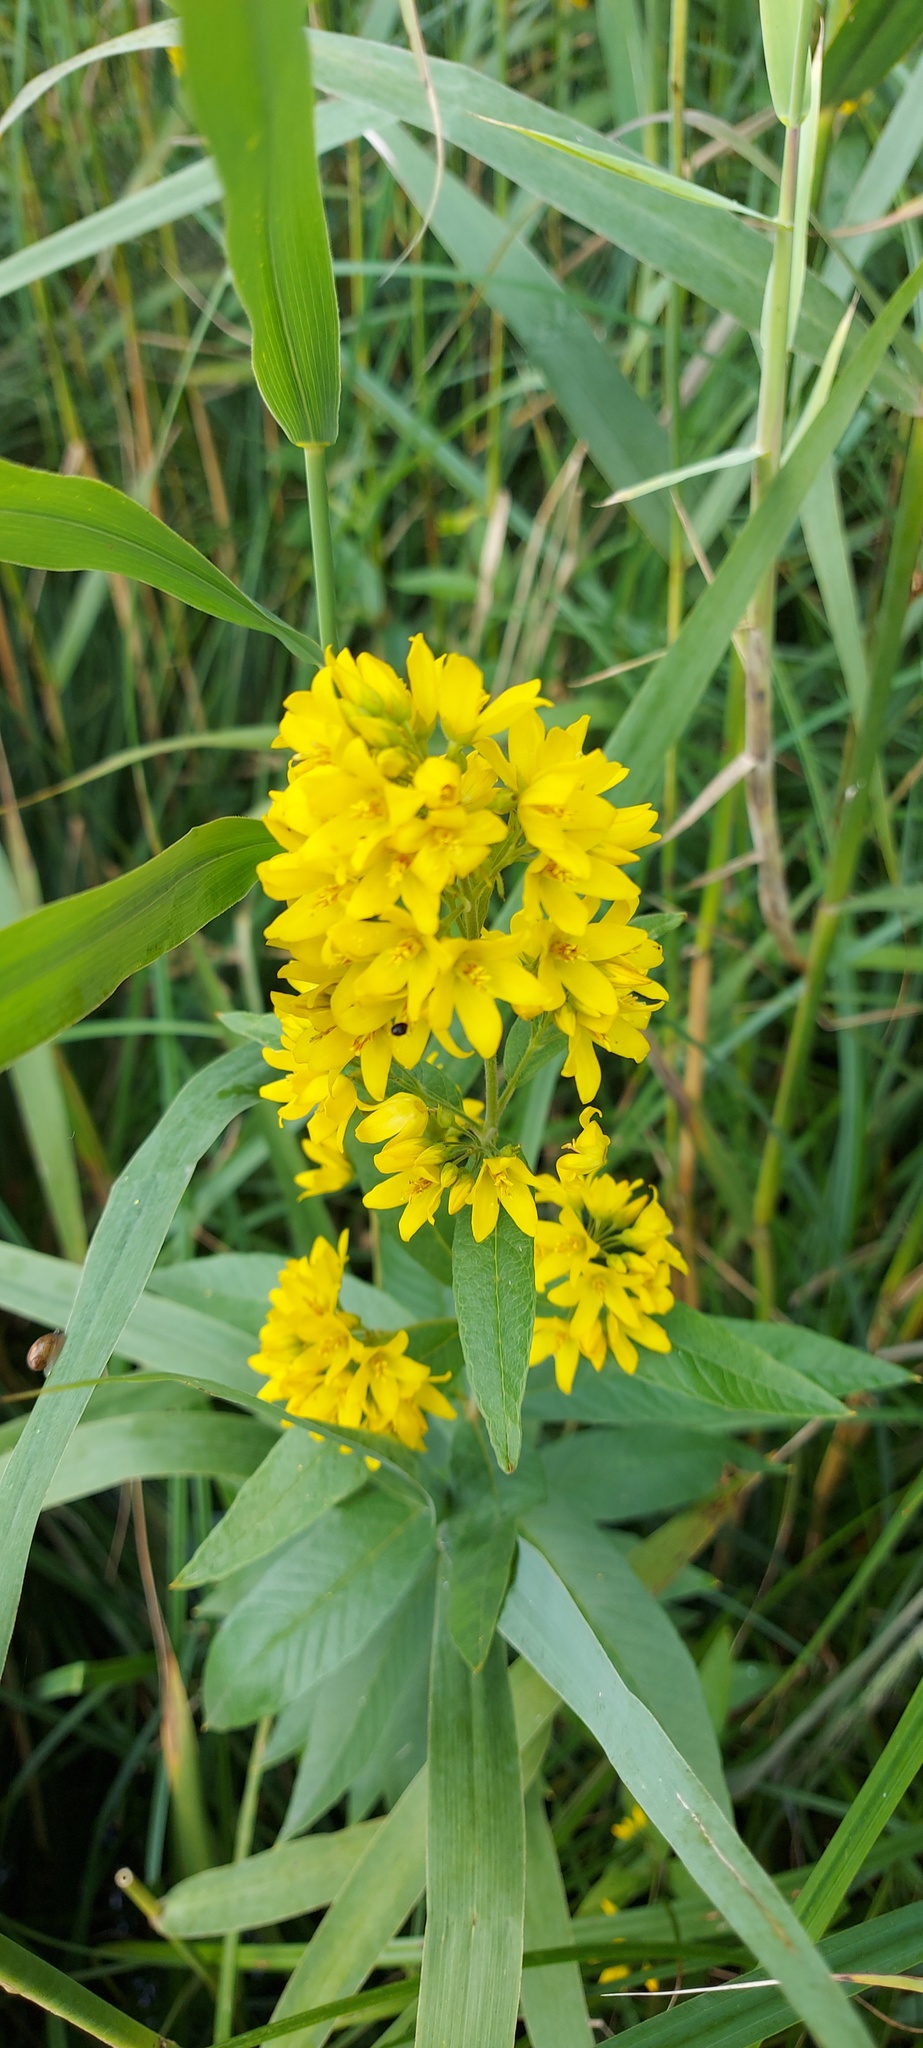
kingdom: Plantae
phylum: Tracheophyta
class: Magnoliopsida
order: Ericales
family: Primulaceae
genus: Lysimachia
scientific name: Lysimachia vulgaris
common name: Yellow loosestrife
